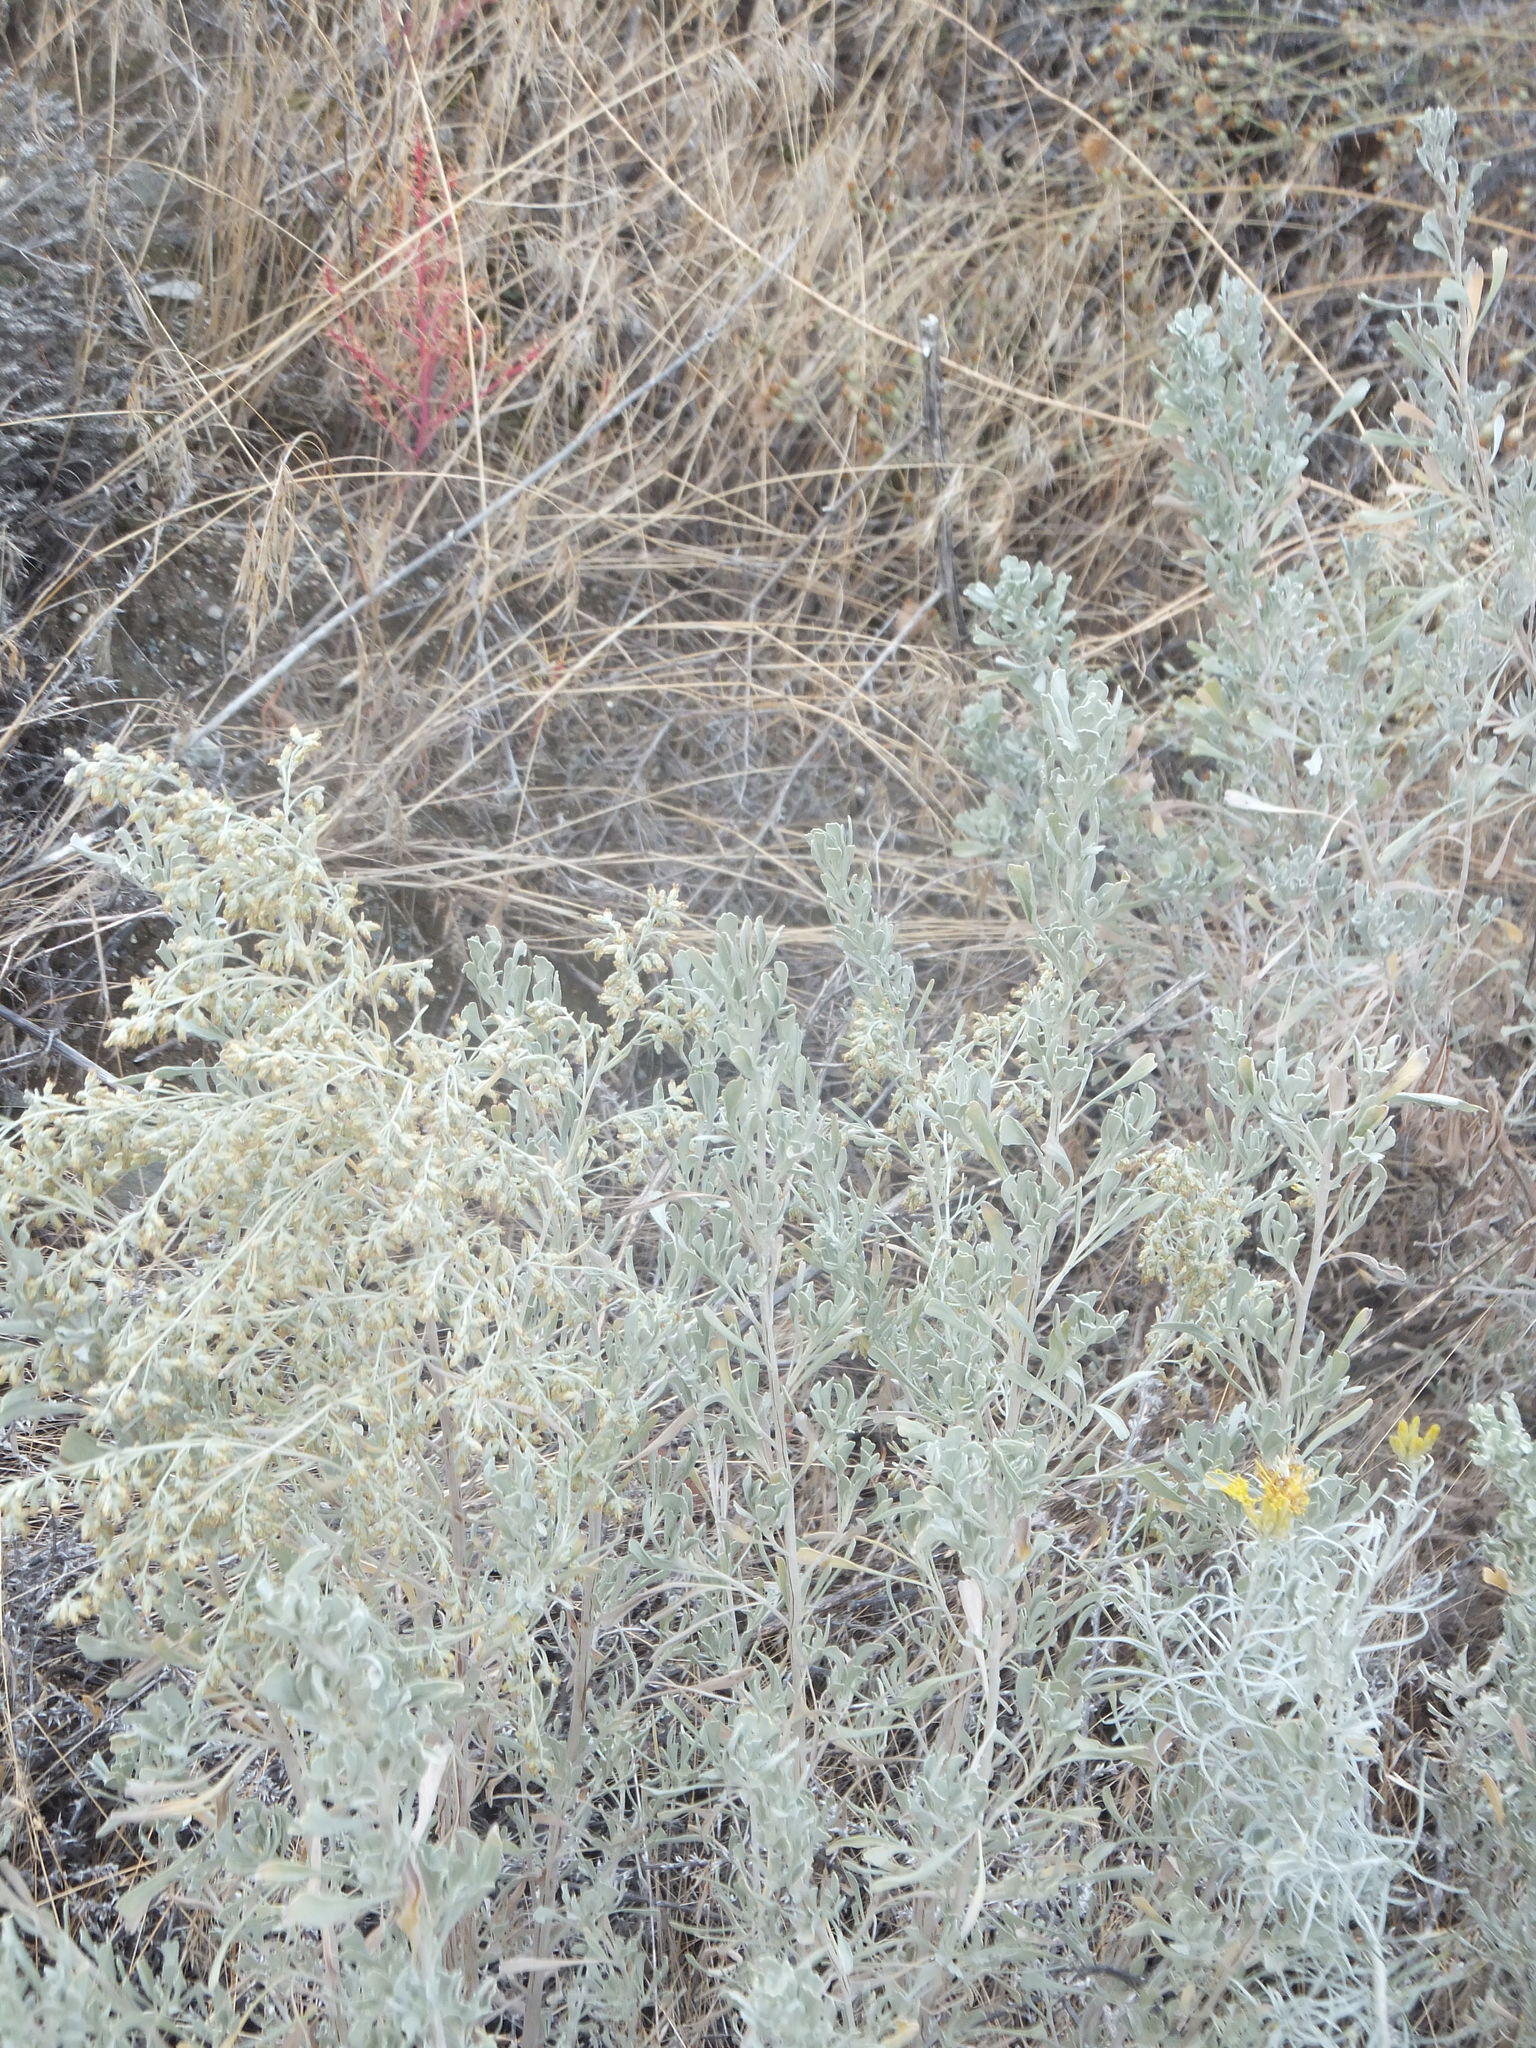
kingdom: Plantae
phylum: Tracheophyta
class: Magnoliopsida
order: Asterales
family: Asteraceae
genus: Artemisia
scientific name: Artemisia tridentata
